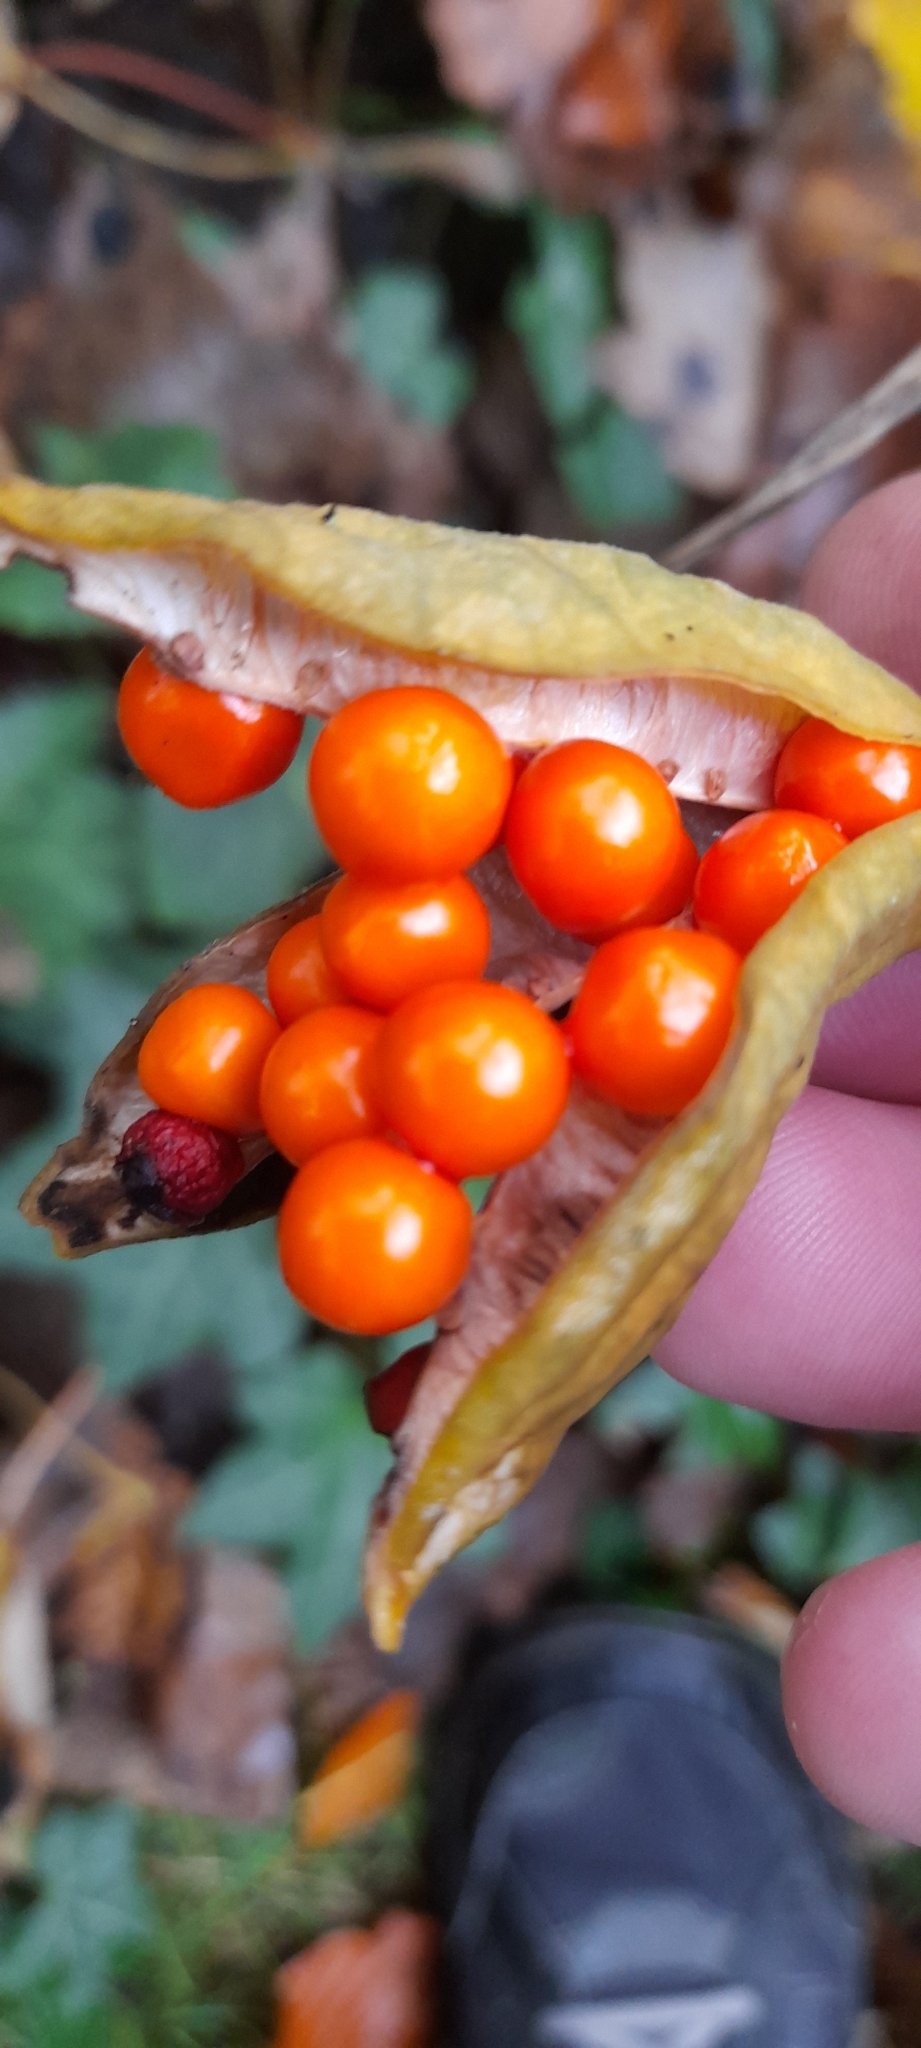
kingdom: Plantae
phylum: Tracheophyta
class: Liliopsida
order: Asparagales
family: Iridaceae
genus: Iris
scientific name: Iris foetidissima
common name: Stinking iris
